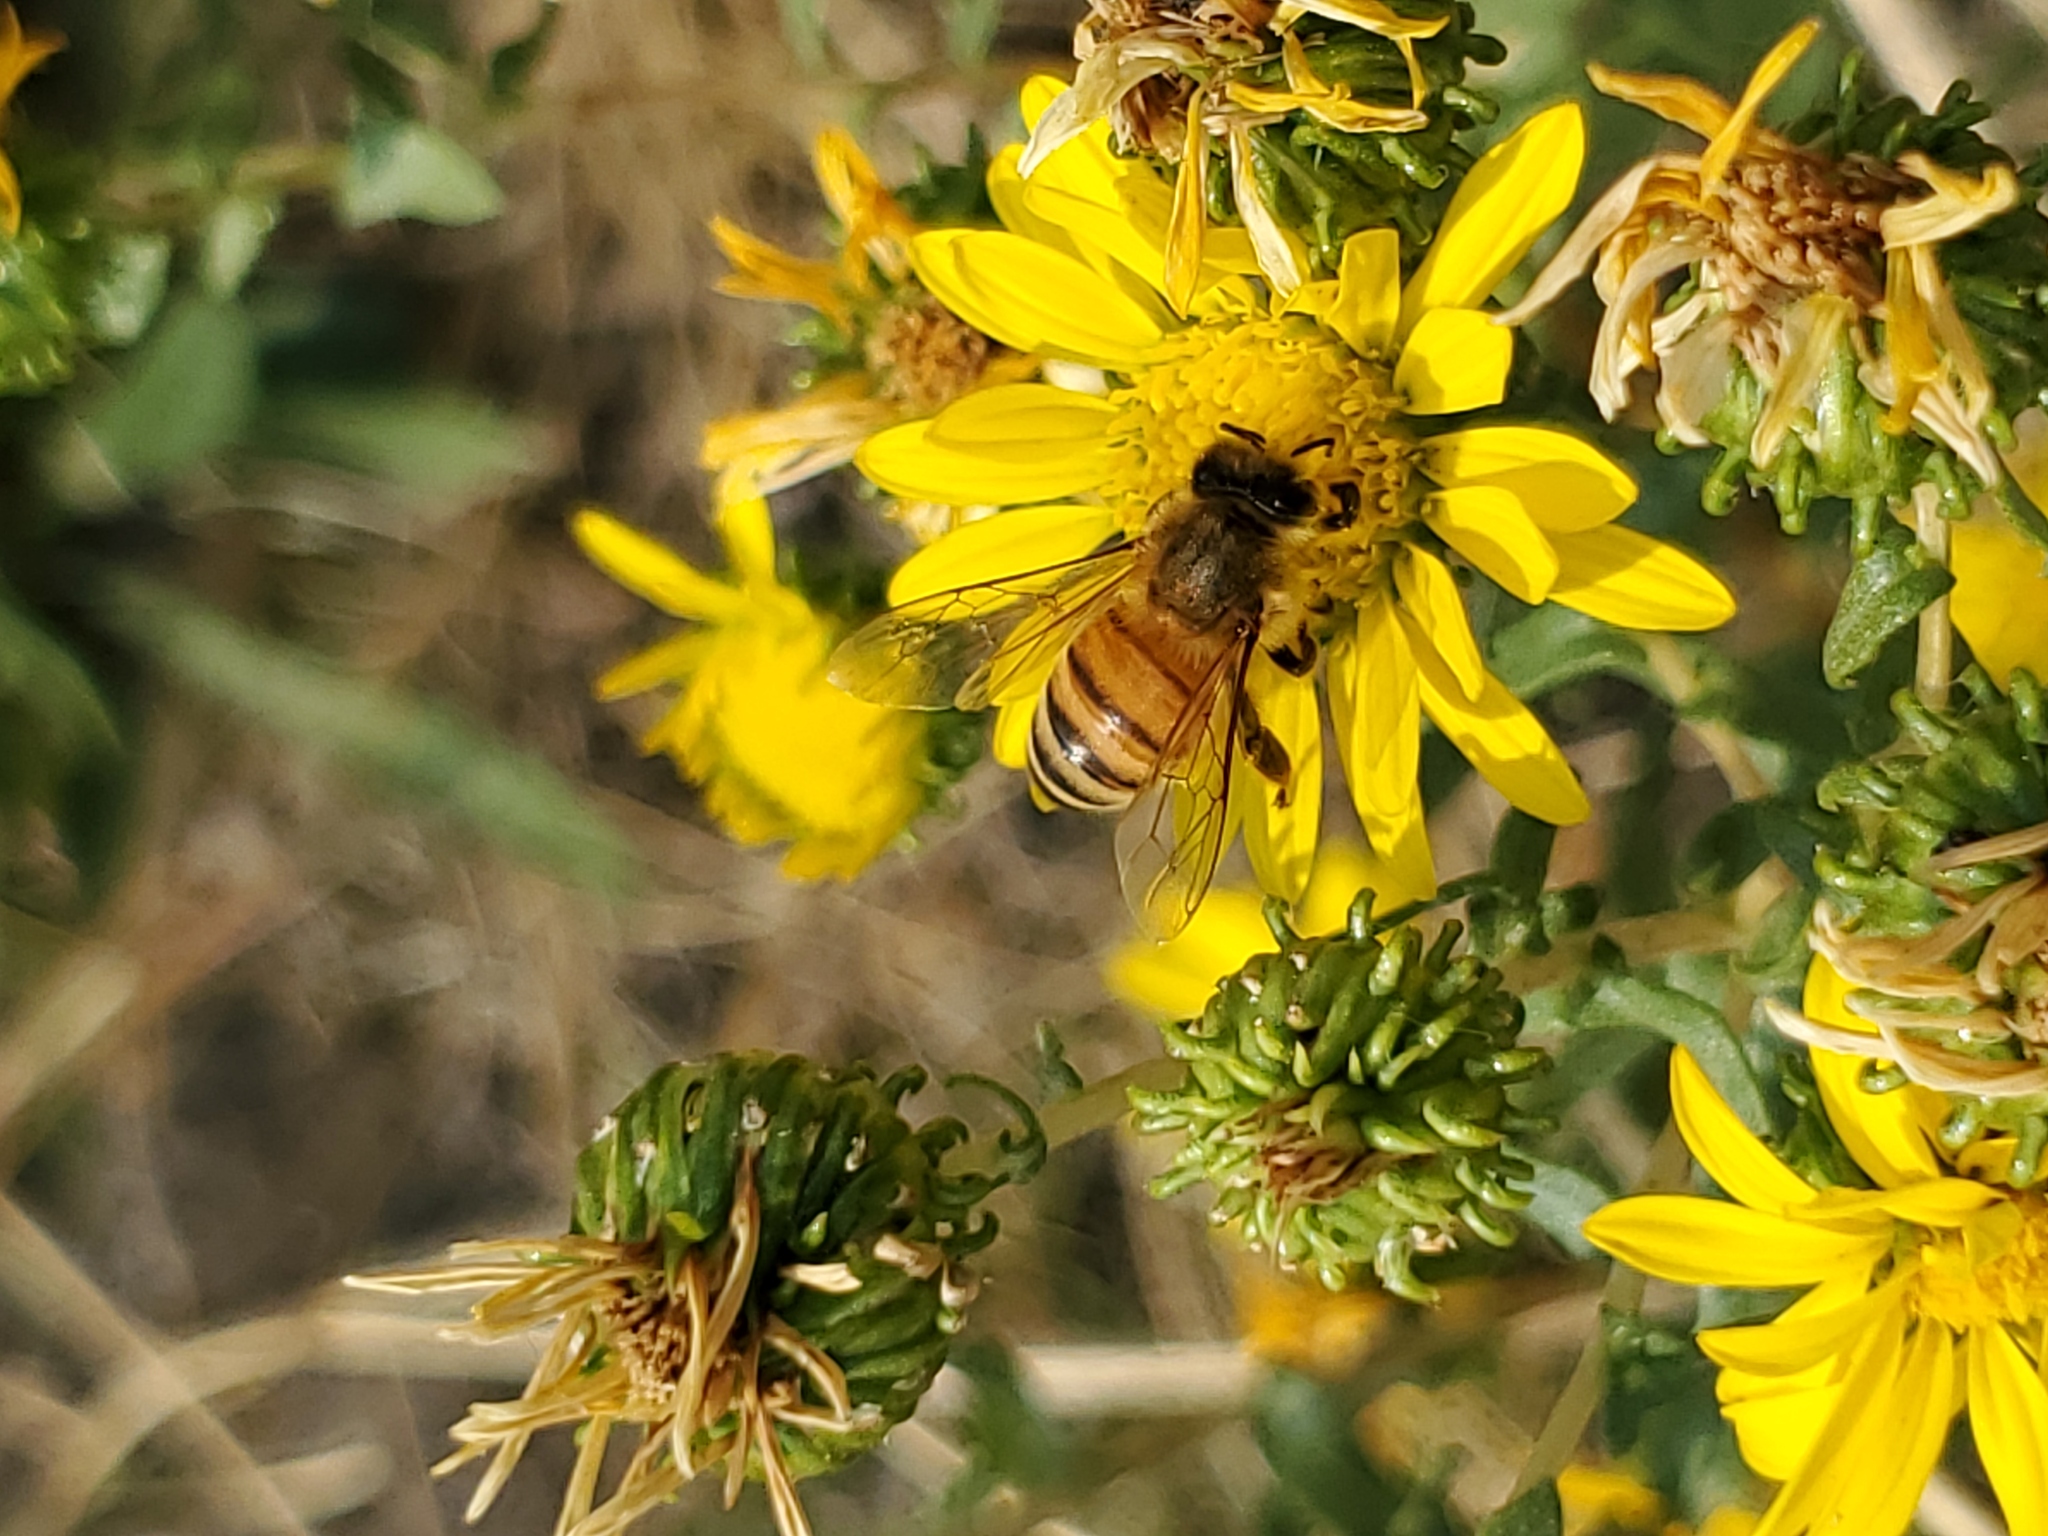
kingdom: Plantae
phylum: Tracheophyta
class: Magnoliopsida
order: Asterales
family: Asteraceae
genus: Grindelia
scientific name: Grindelia squarrosa
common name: Curly-cup gumweed
